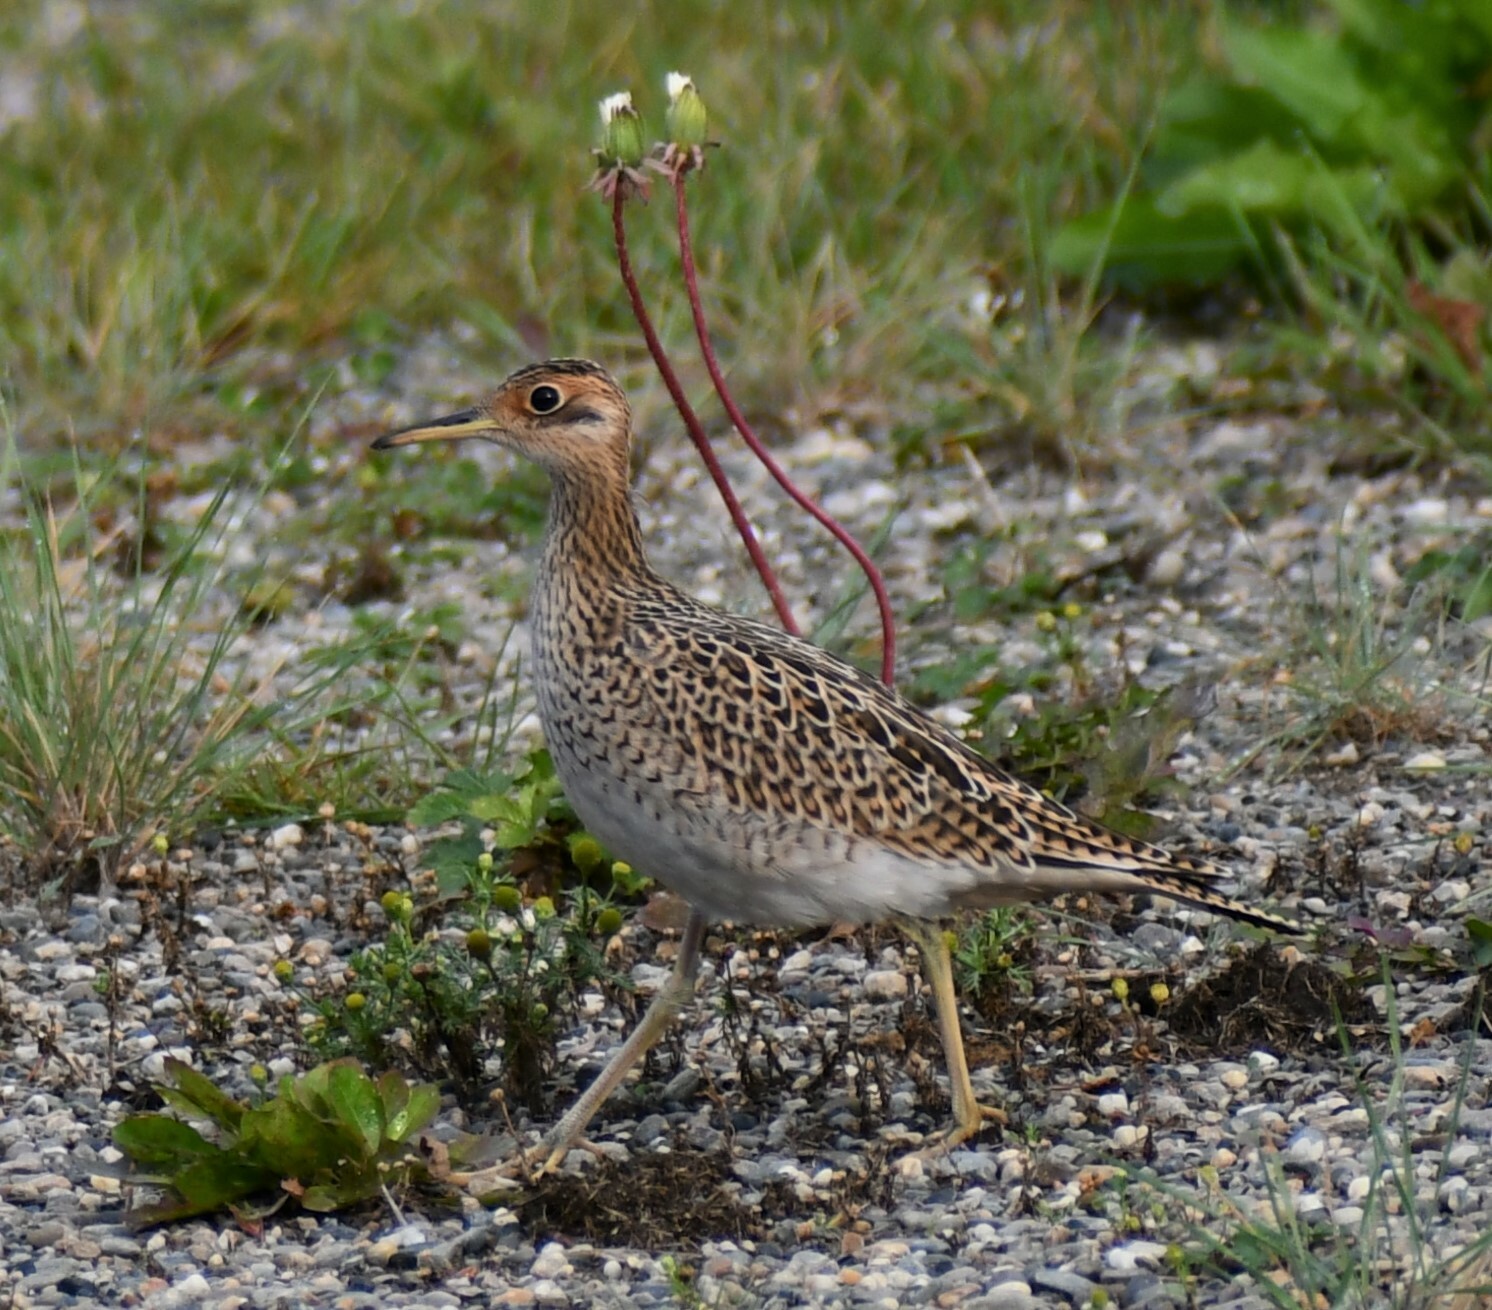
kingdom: Animalia
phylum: Chordata
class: Aves
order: Charadriiformes
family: Scolopacidae
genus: Bartramia
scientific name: Bartramia longicauda
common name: Upland sandpiper
